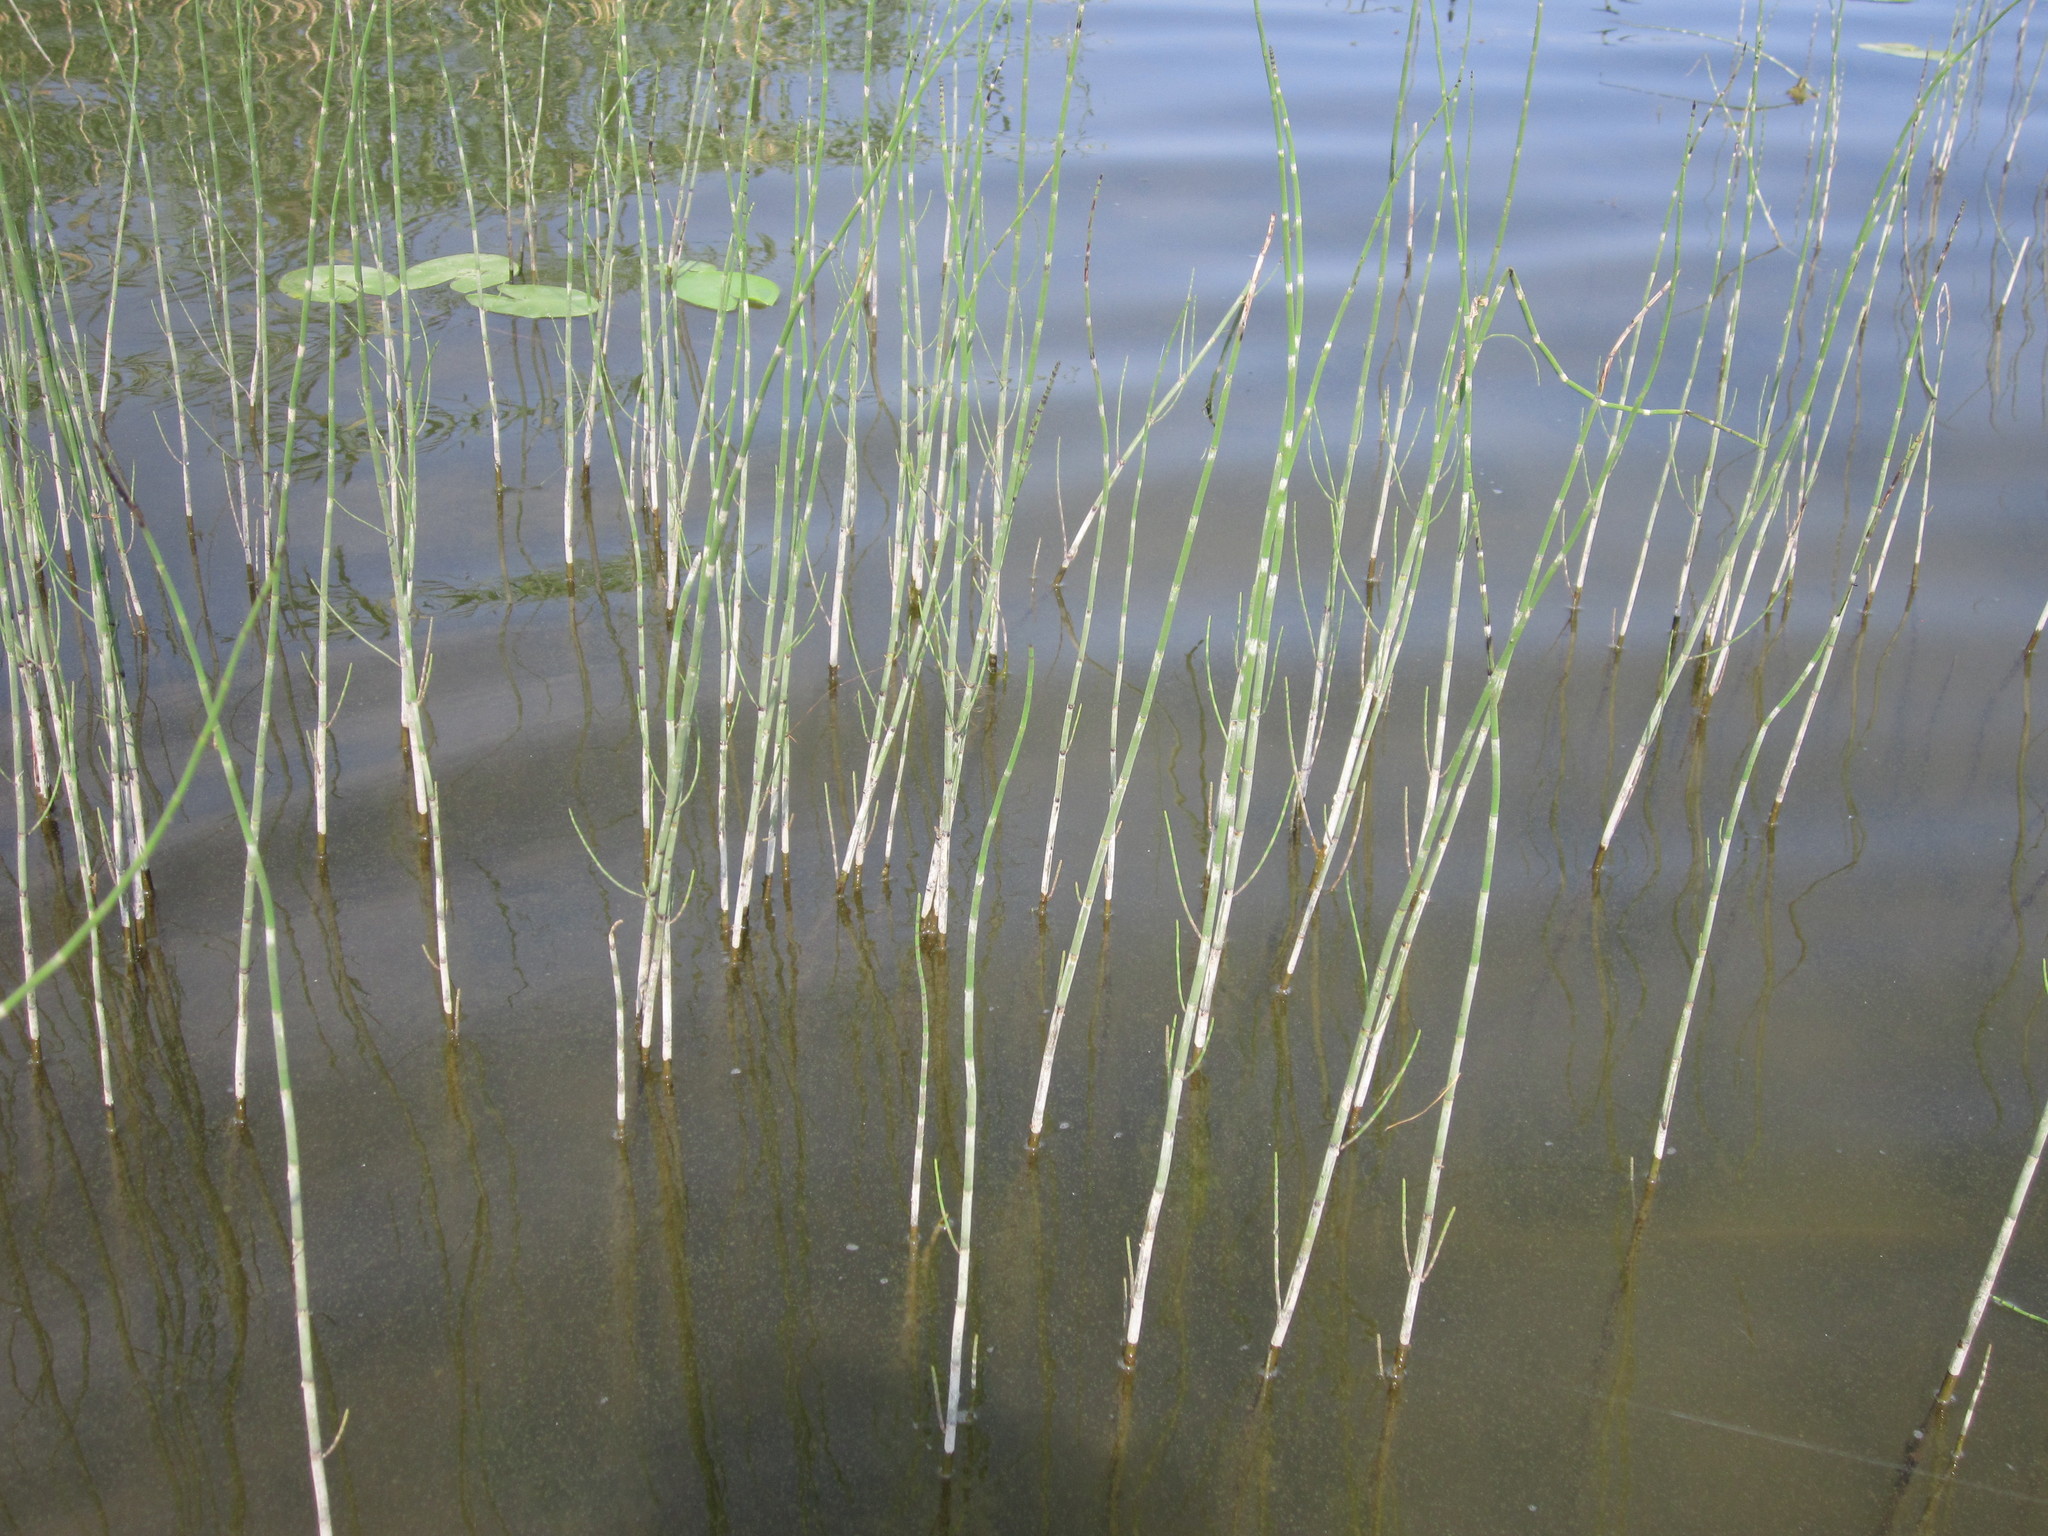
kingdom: Plantae
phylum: Tracheophyta
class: Polypodiopsida
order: Equisetales
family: Equisetaceae
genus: Equisetum
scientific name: Equisetum fluviatile
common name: Water horsetail
